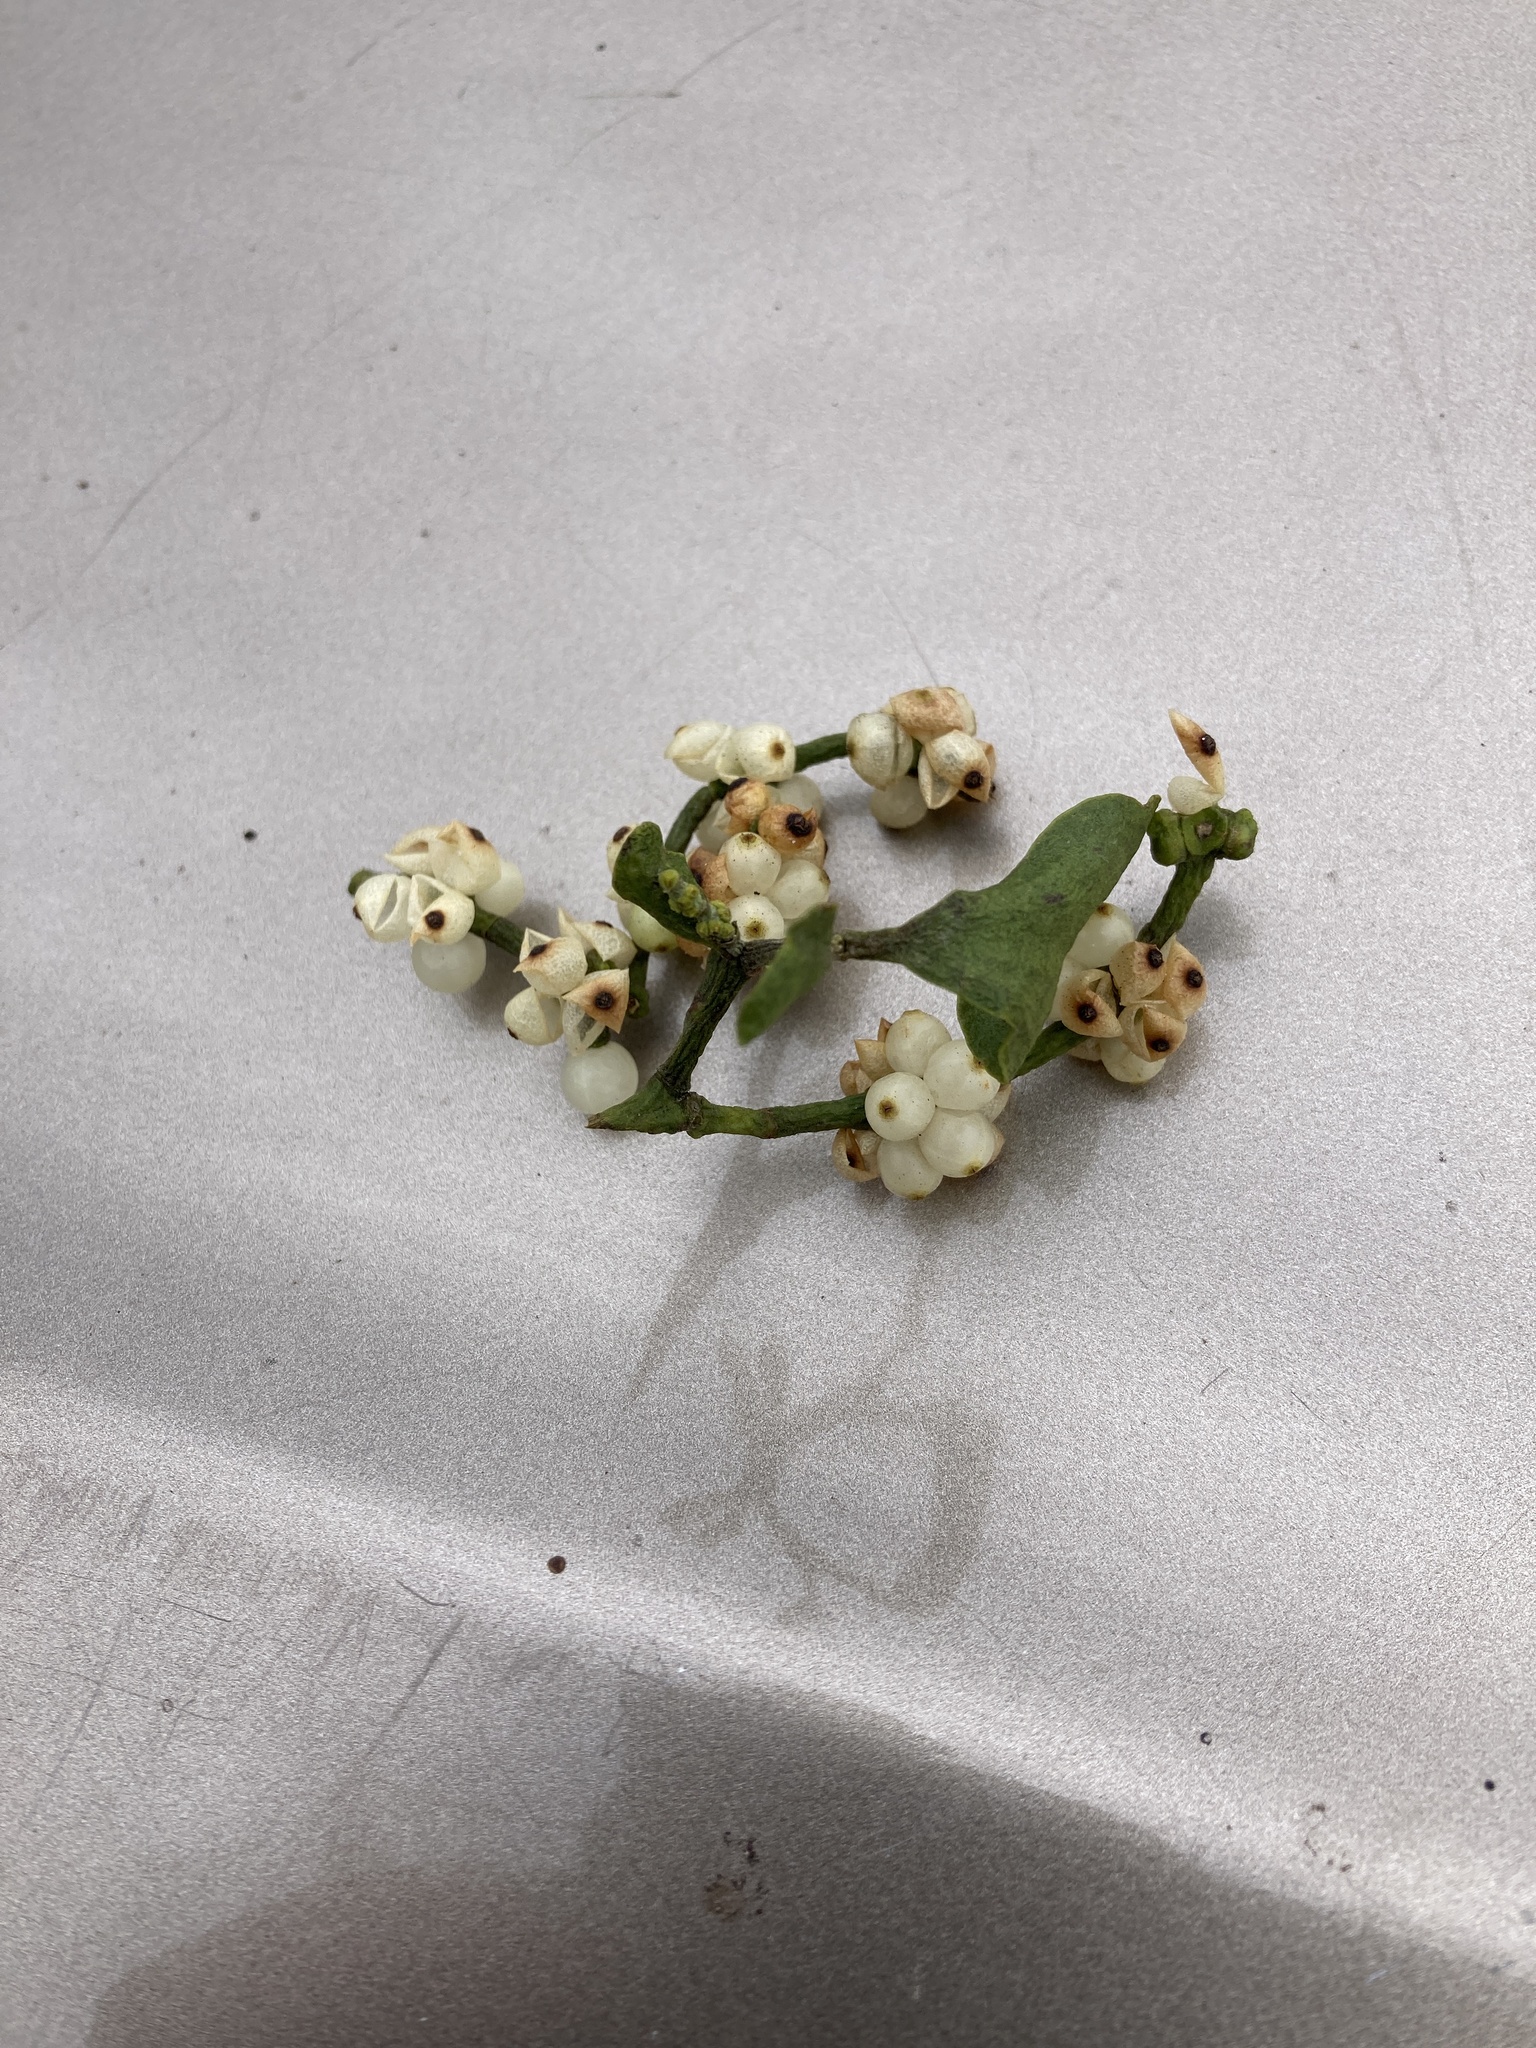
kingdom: Plantae
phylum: Tracheophyta
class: Magnoliopsida
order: Santalales
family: Viscaceae
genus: Phoradendron
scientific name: Phoradendron leucarpum
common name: Pacific mistletoe
